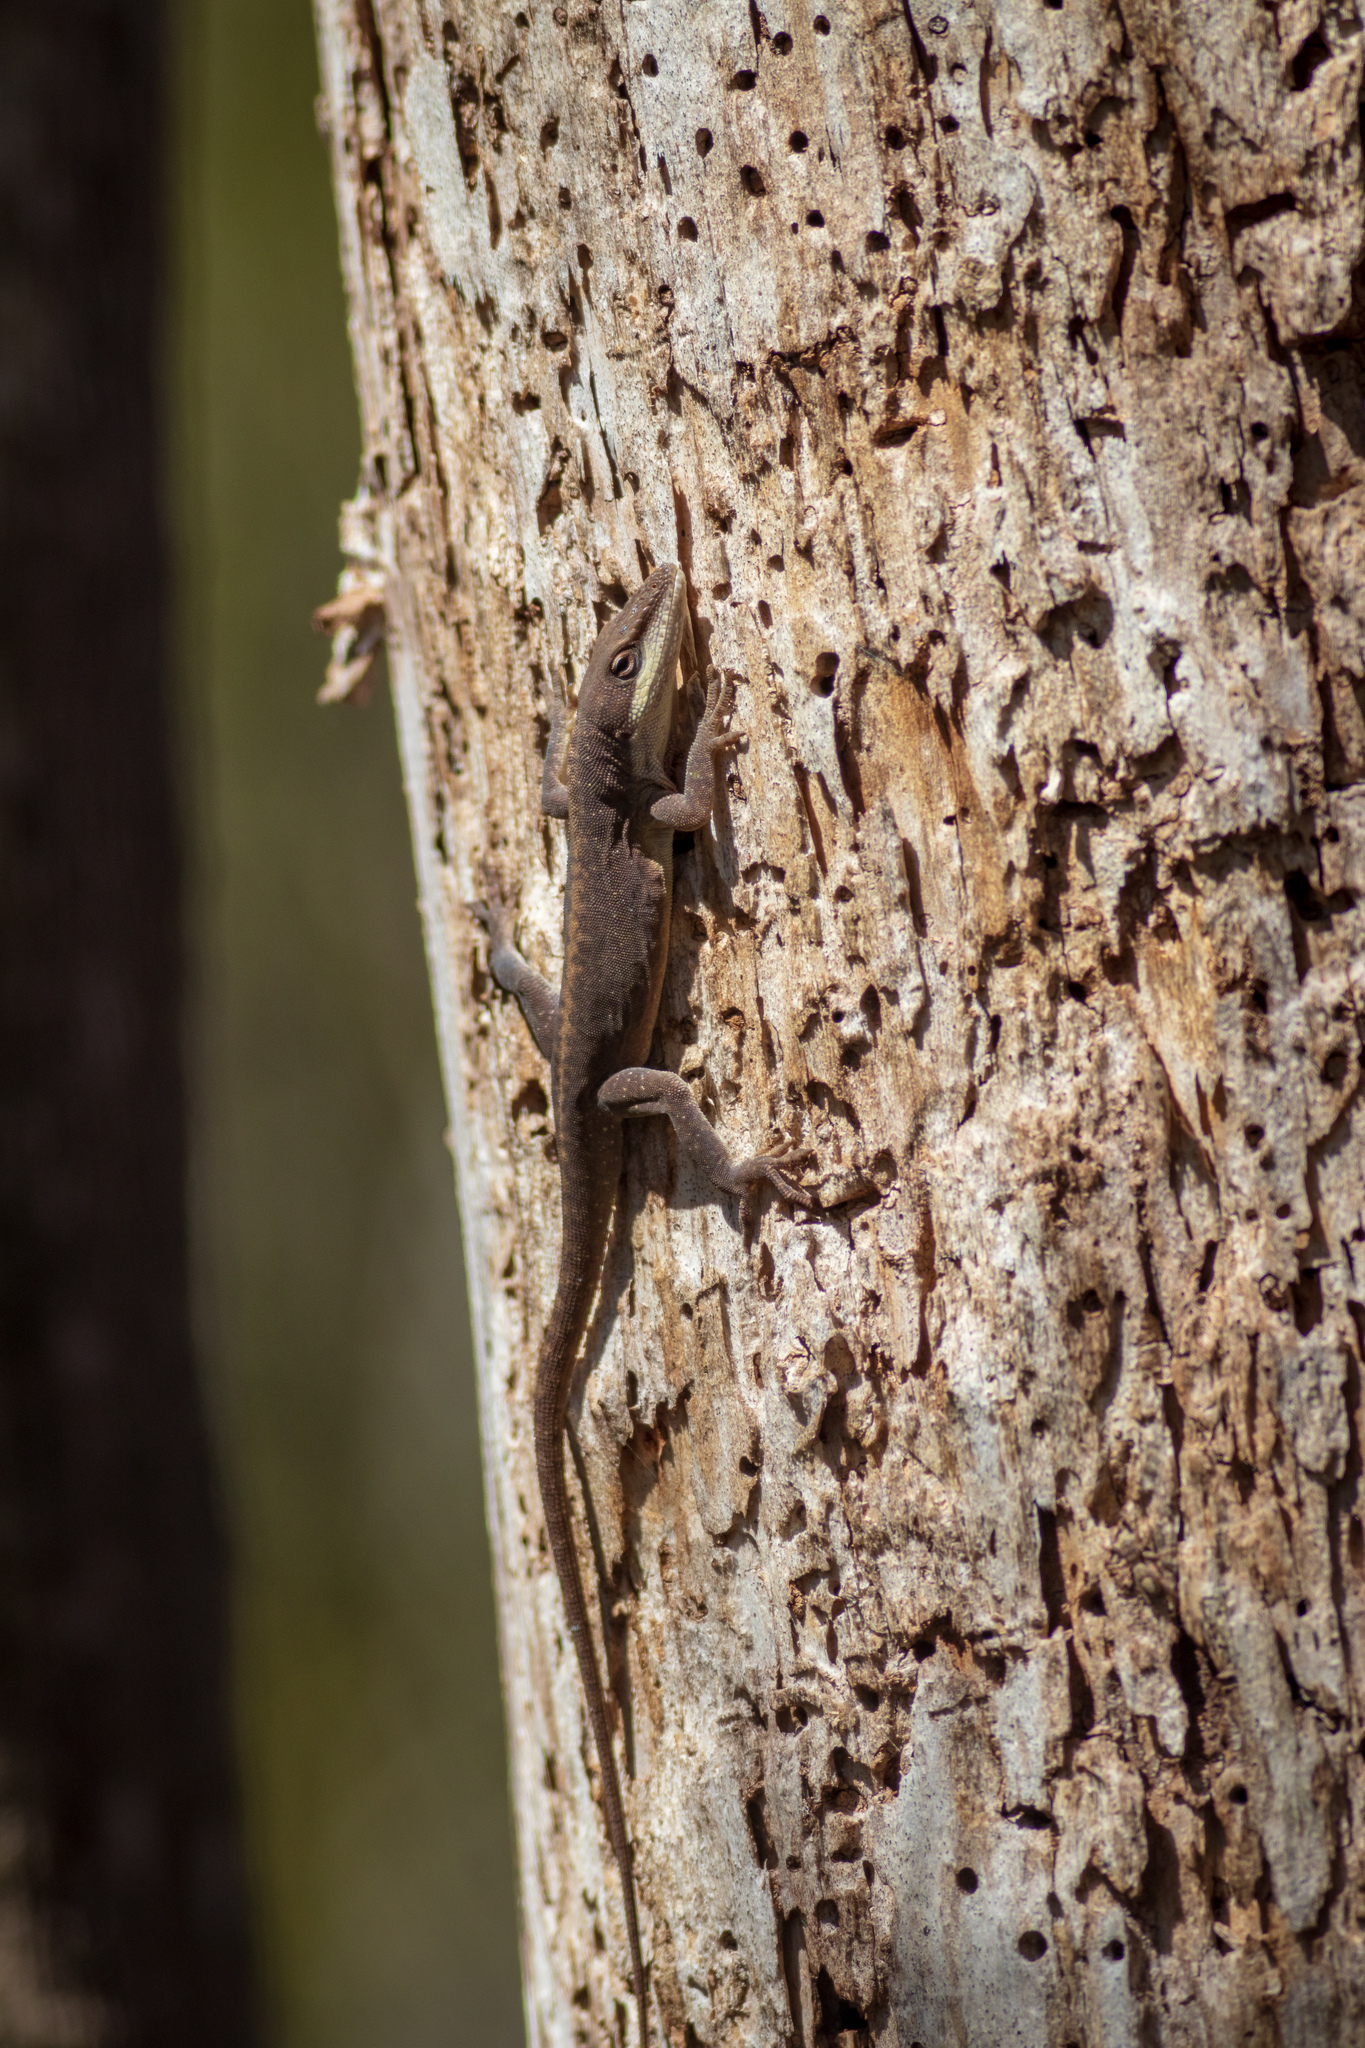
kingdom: Animalia
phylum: Chordata
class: Squamata
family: Dactyloidae
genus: Anolis
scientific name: Anolis carolinensis
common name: Green anole
